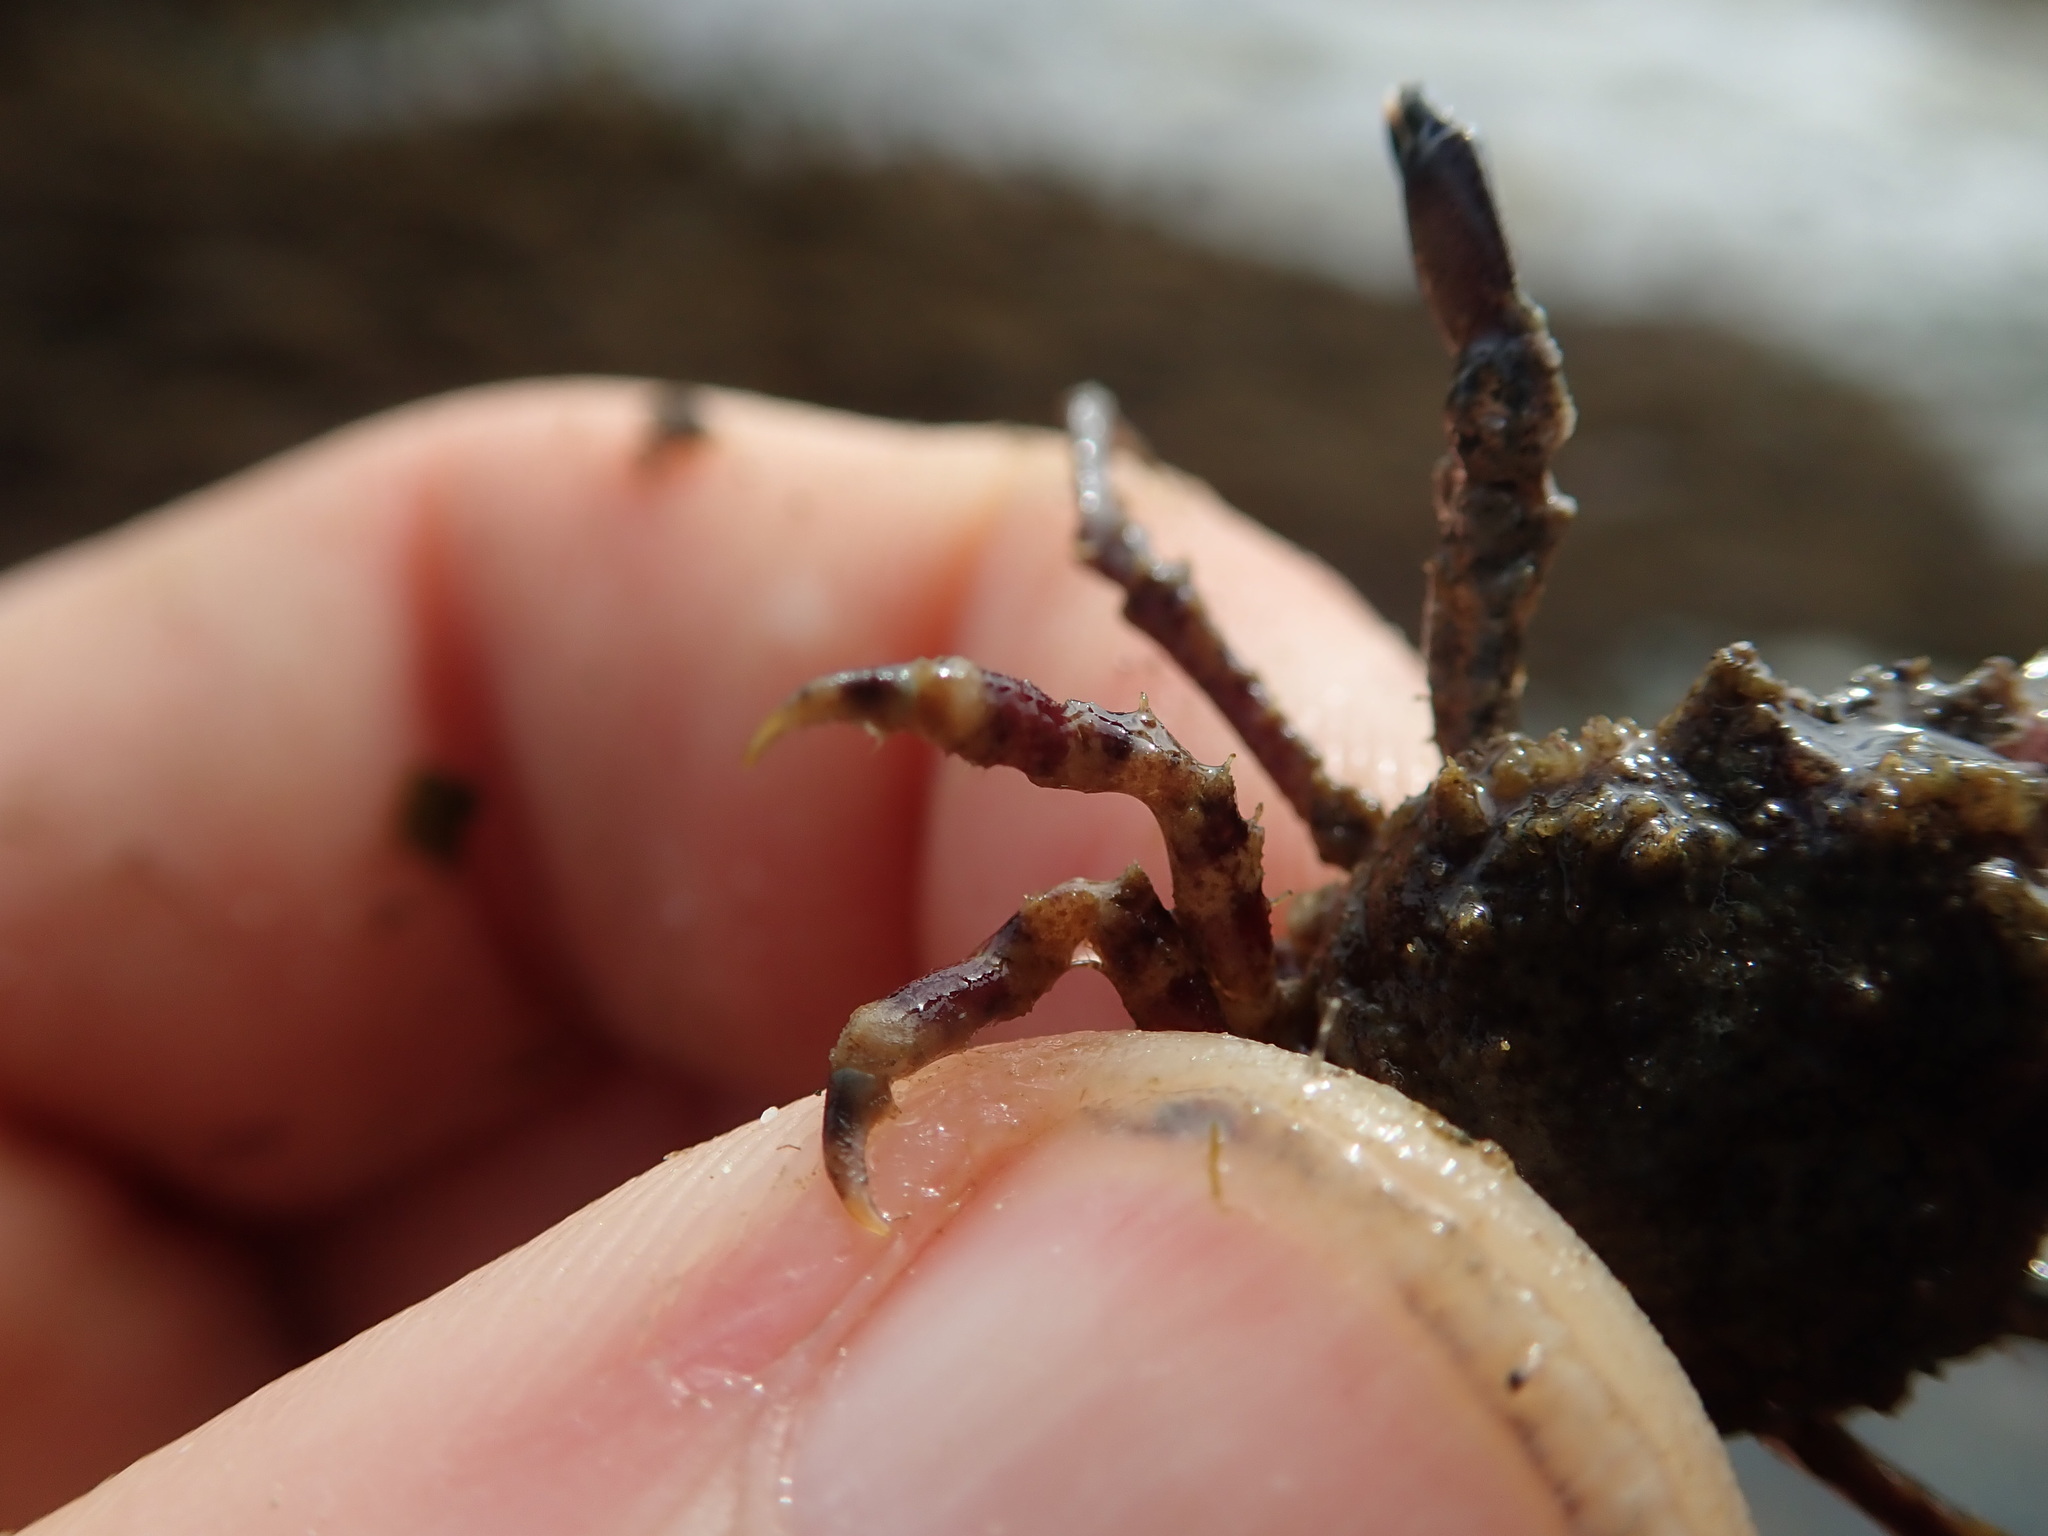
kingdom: Animalia
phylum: Arthropoda
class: Malacostraca
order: Decapoda
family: Epialtidae
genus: Pugettia
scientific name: Pugettia gracilis
